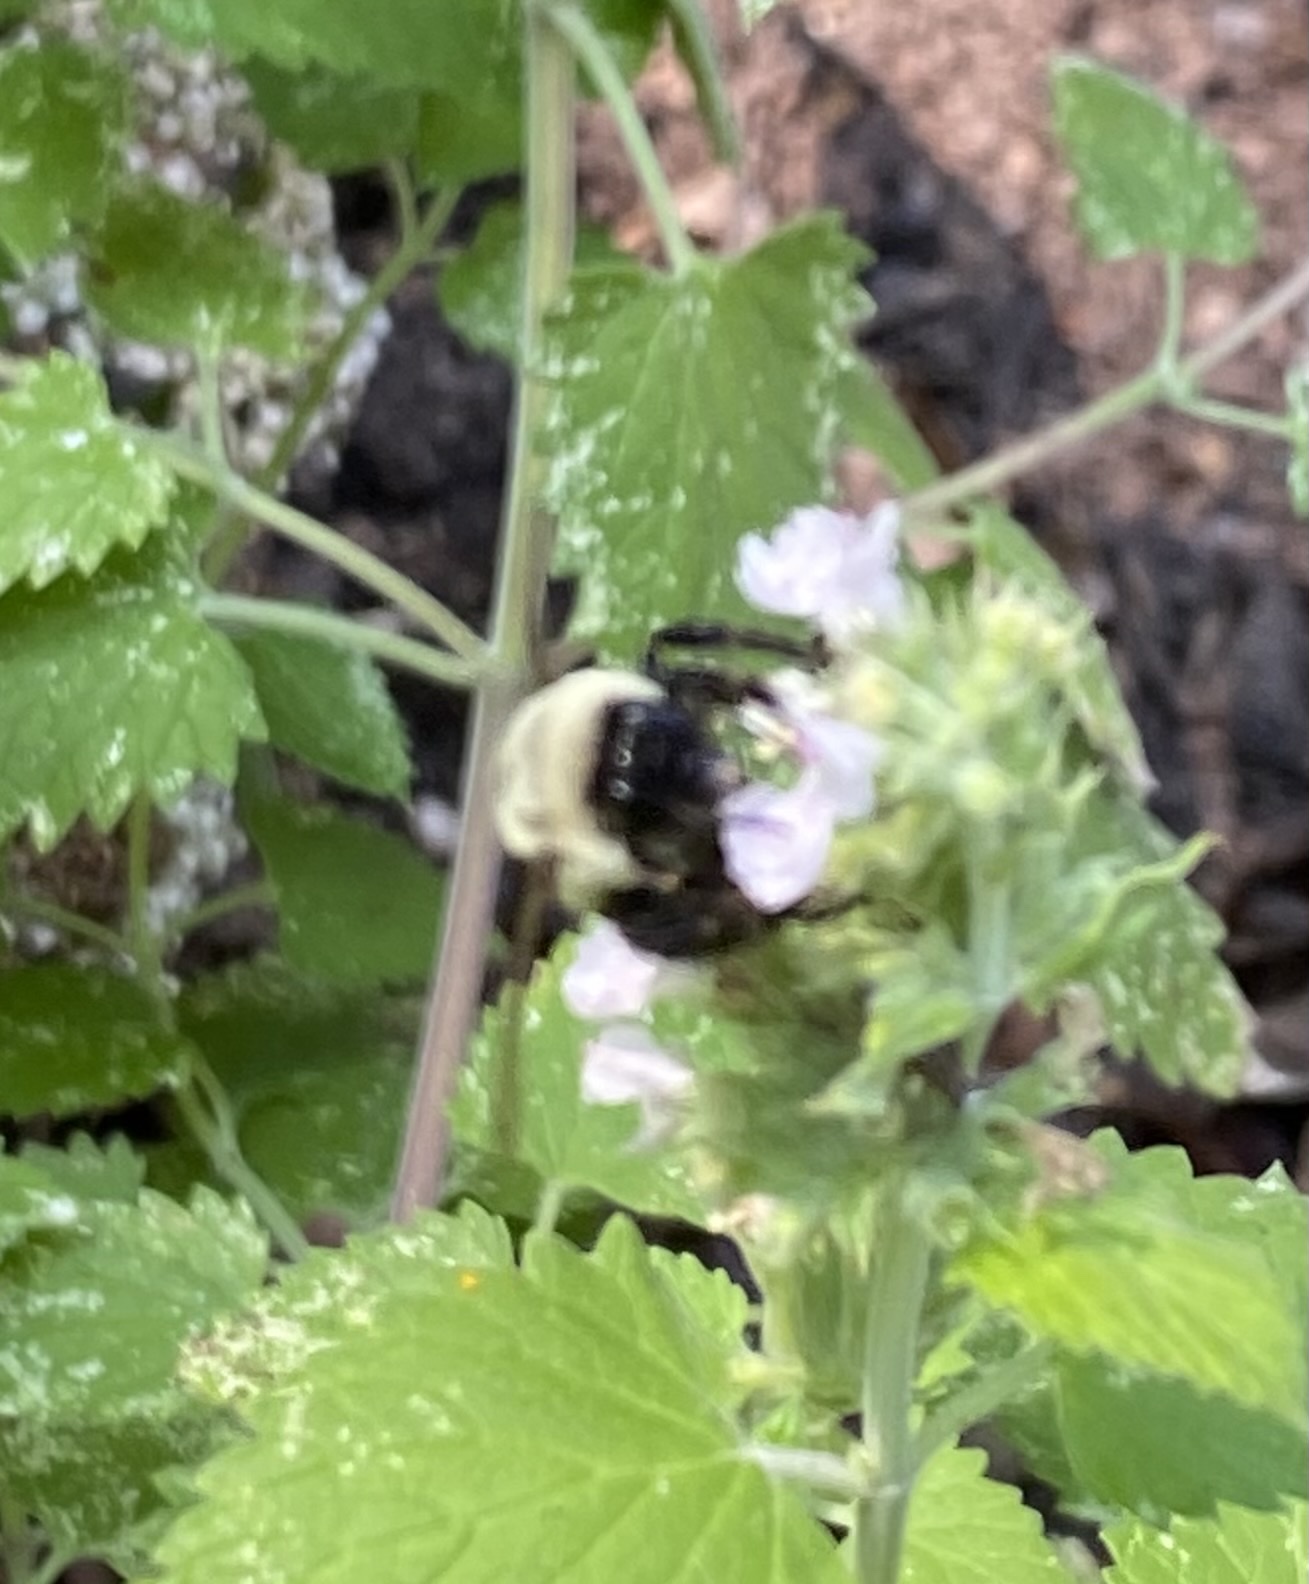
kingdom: Animalia
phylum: Arthropoda
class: Insecta
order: Hymenoptera
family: Apidae
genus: Bombus
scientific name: Bombus impatiens
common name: Common eastern bumble bee
